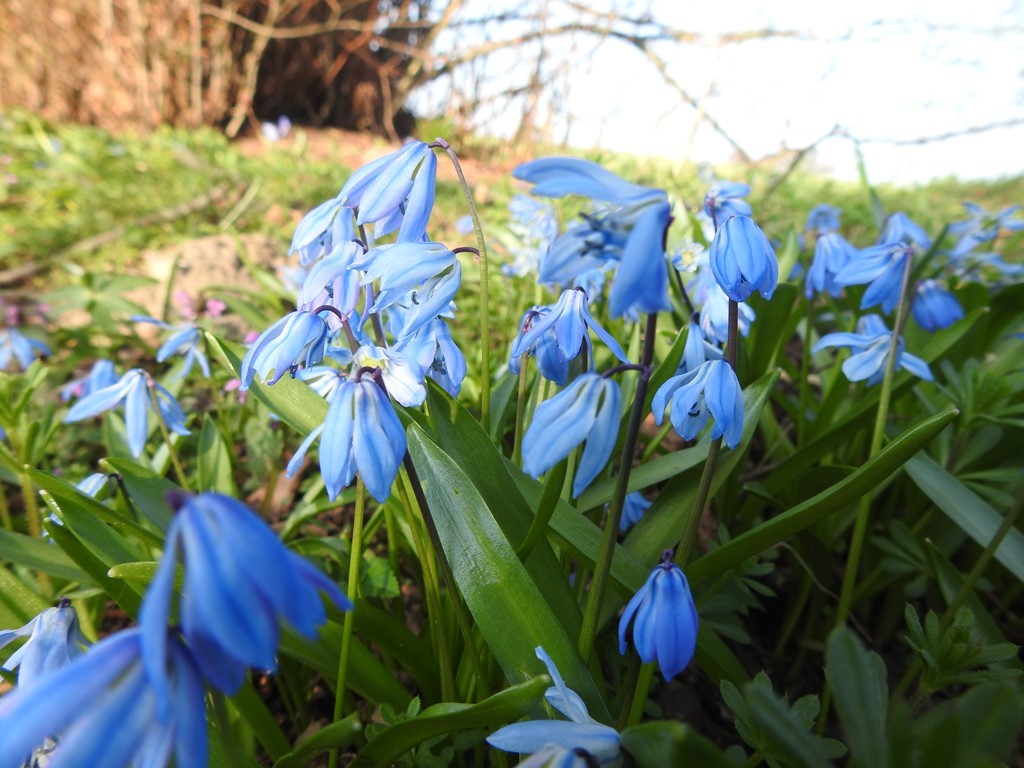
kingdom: Plantae
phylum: Tracheophyta
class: Liliopsida
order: Asparagales
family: Asparagaceae
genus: Scilla
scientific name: Scilla siberica
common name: Siberian squill
